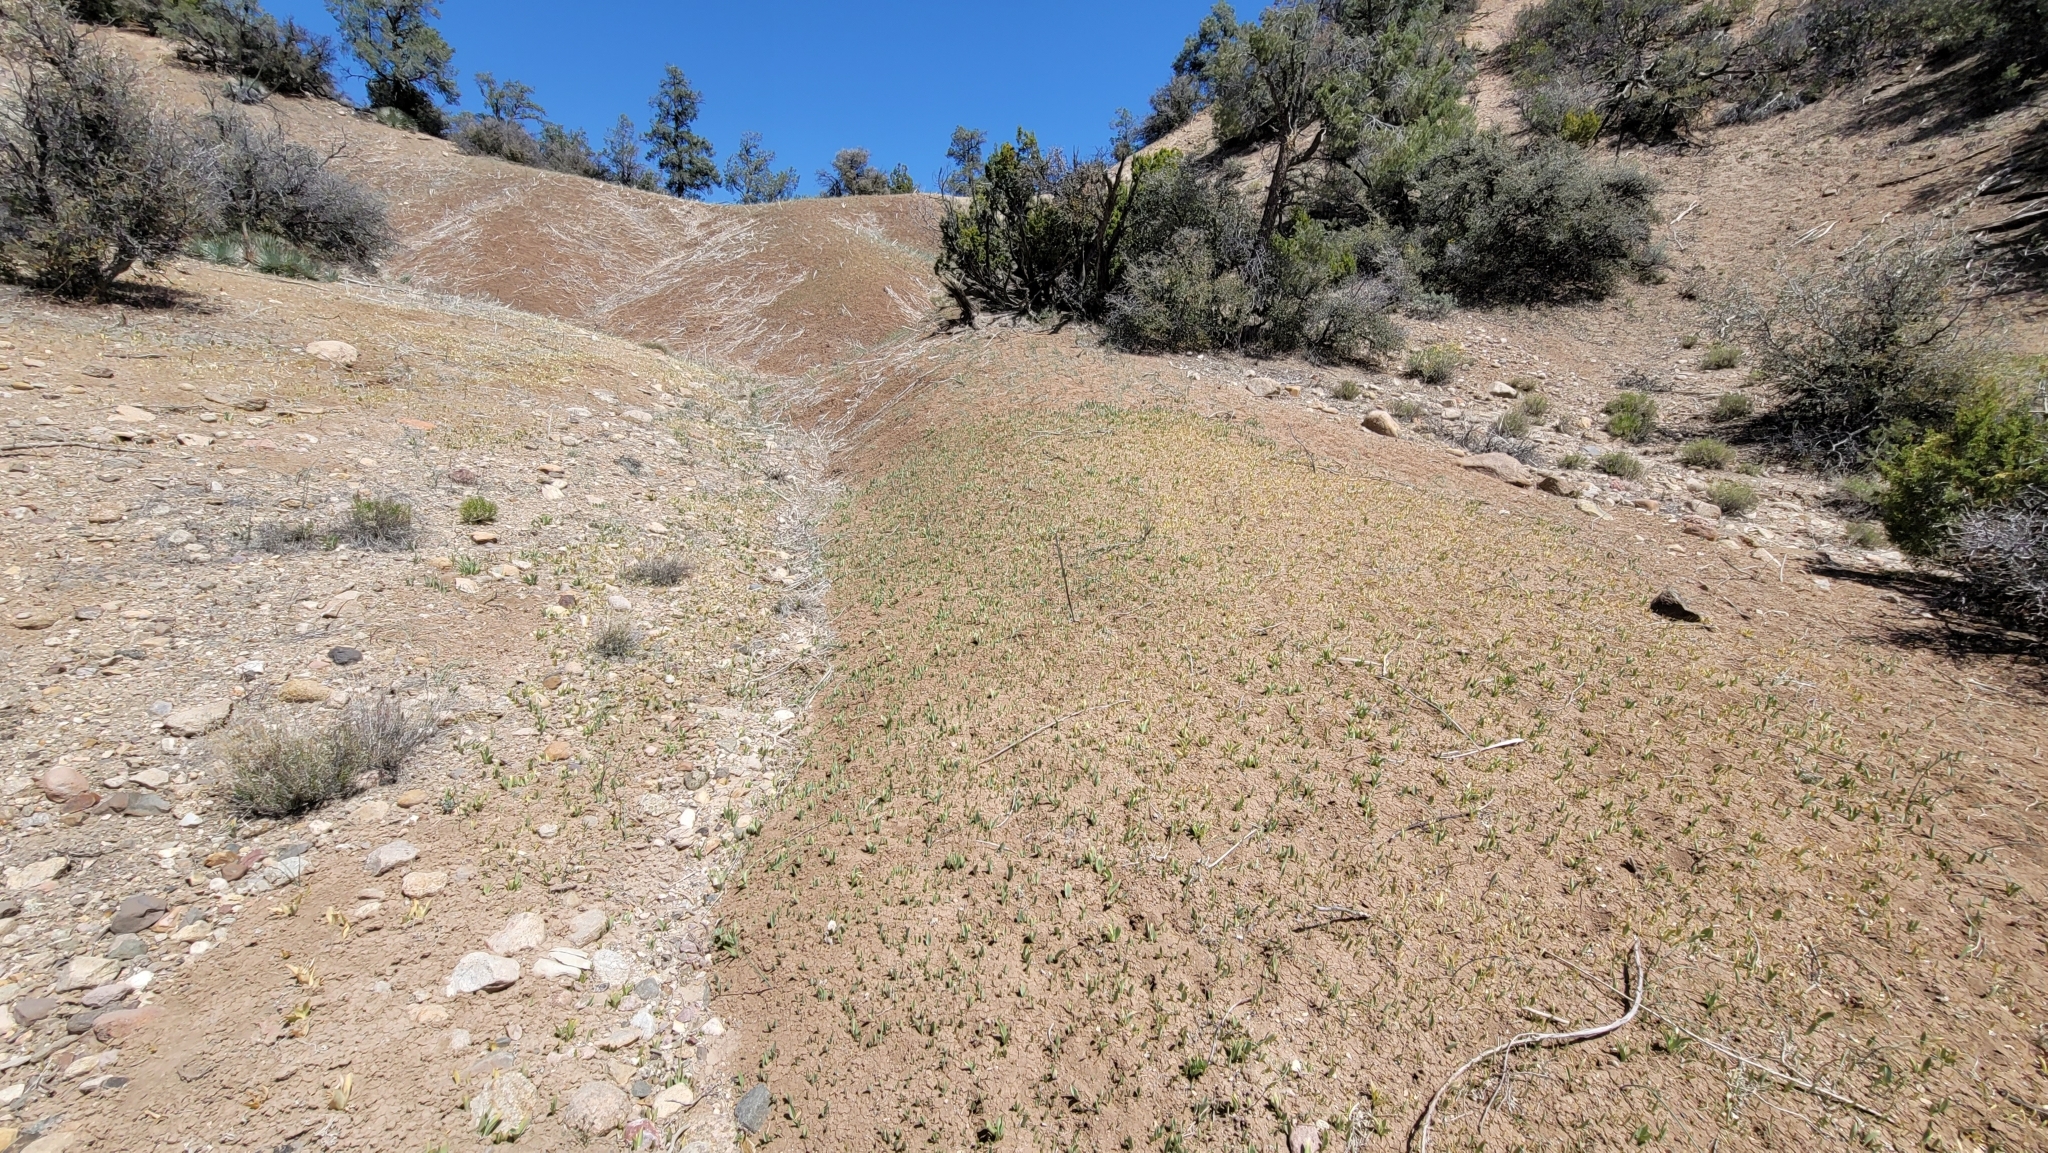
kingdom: Plantae
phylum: Tracheophyta
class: Liliopsida
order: Liliales
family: Liliaceae
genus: Fritillaria
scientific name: Fritillaria agrestis
